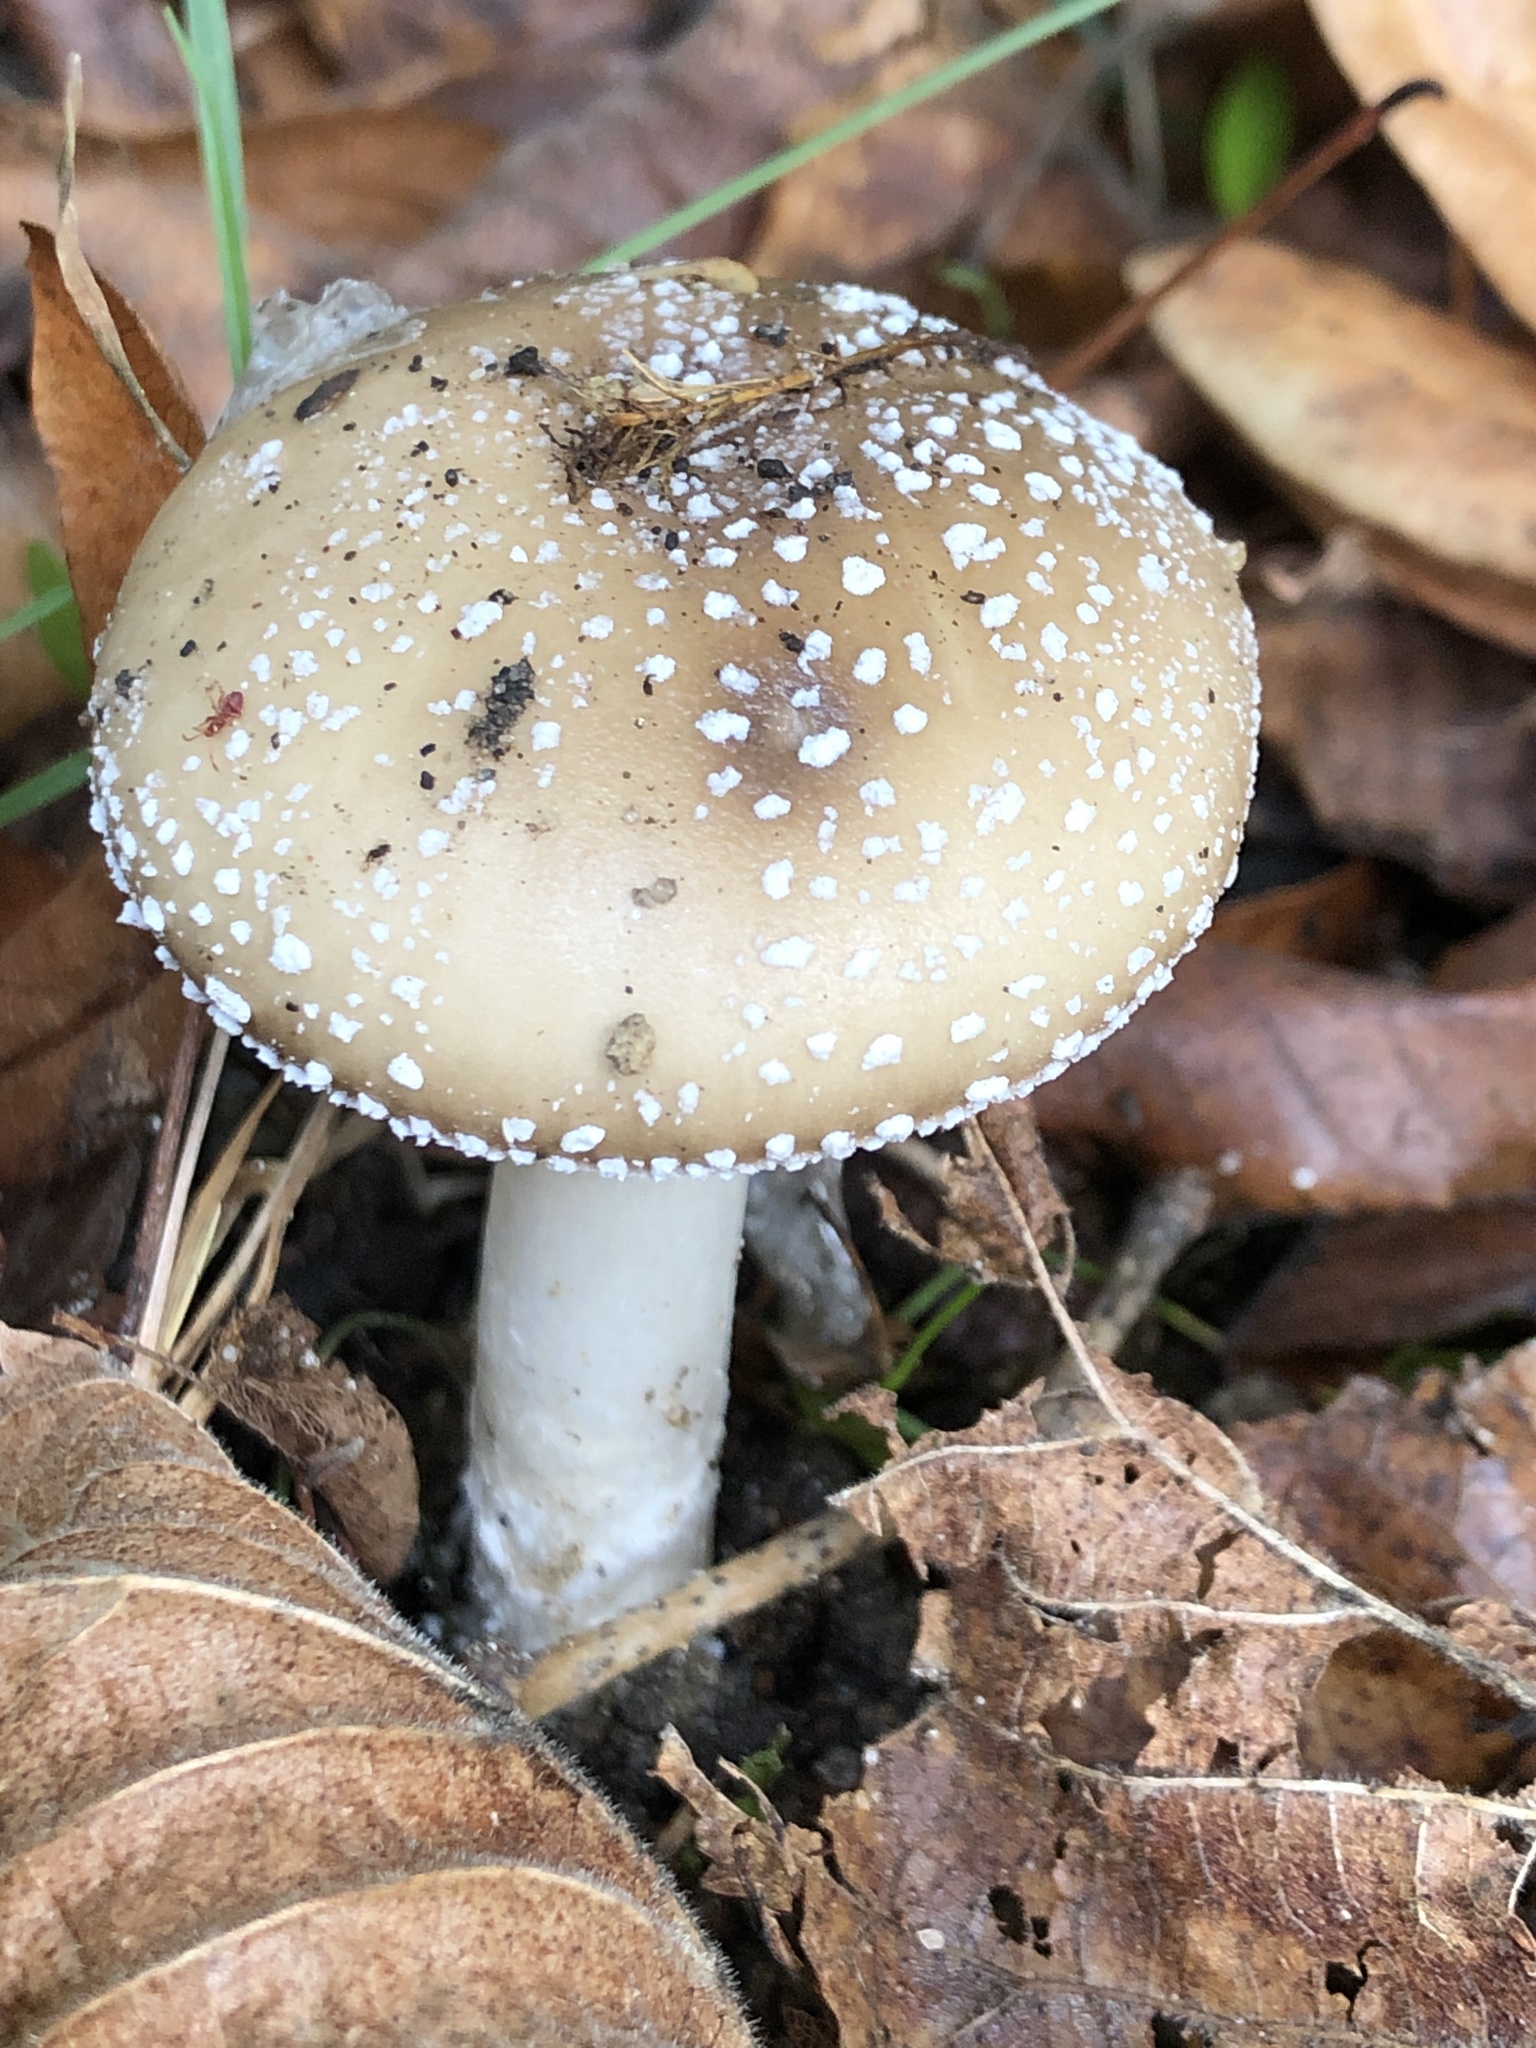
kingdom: Fungi
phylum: Basidiomycota
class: Agaricomycetes
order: Agaricales
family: Amanitaceae
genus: Amanita
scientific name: Amanita pantherina
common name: Panthercap
